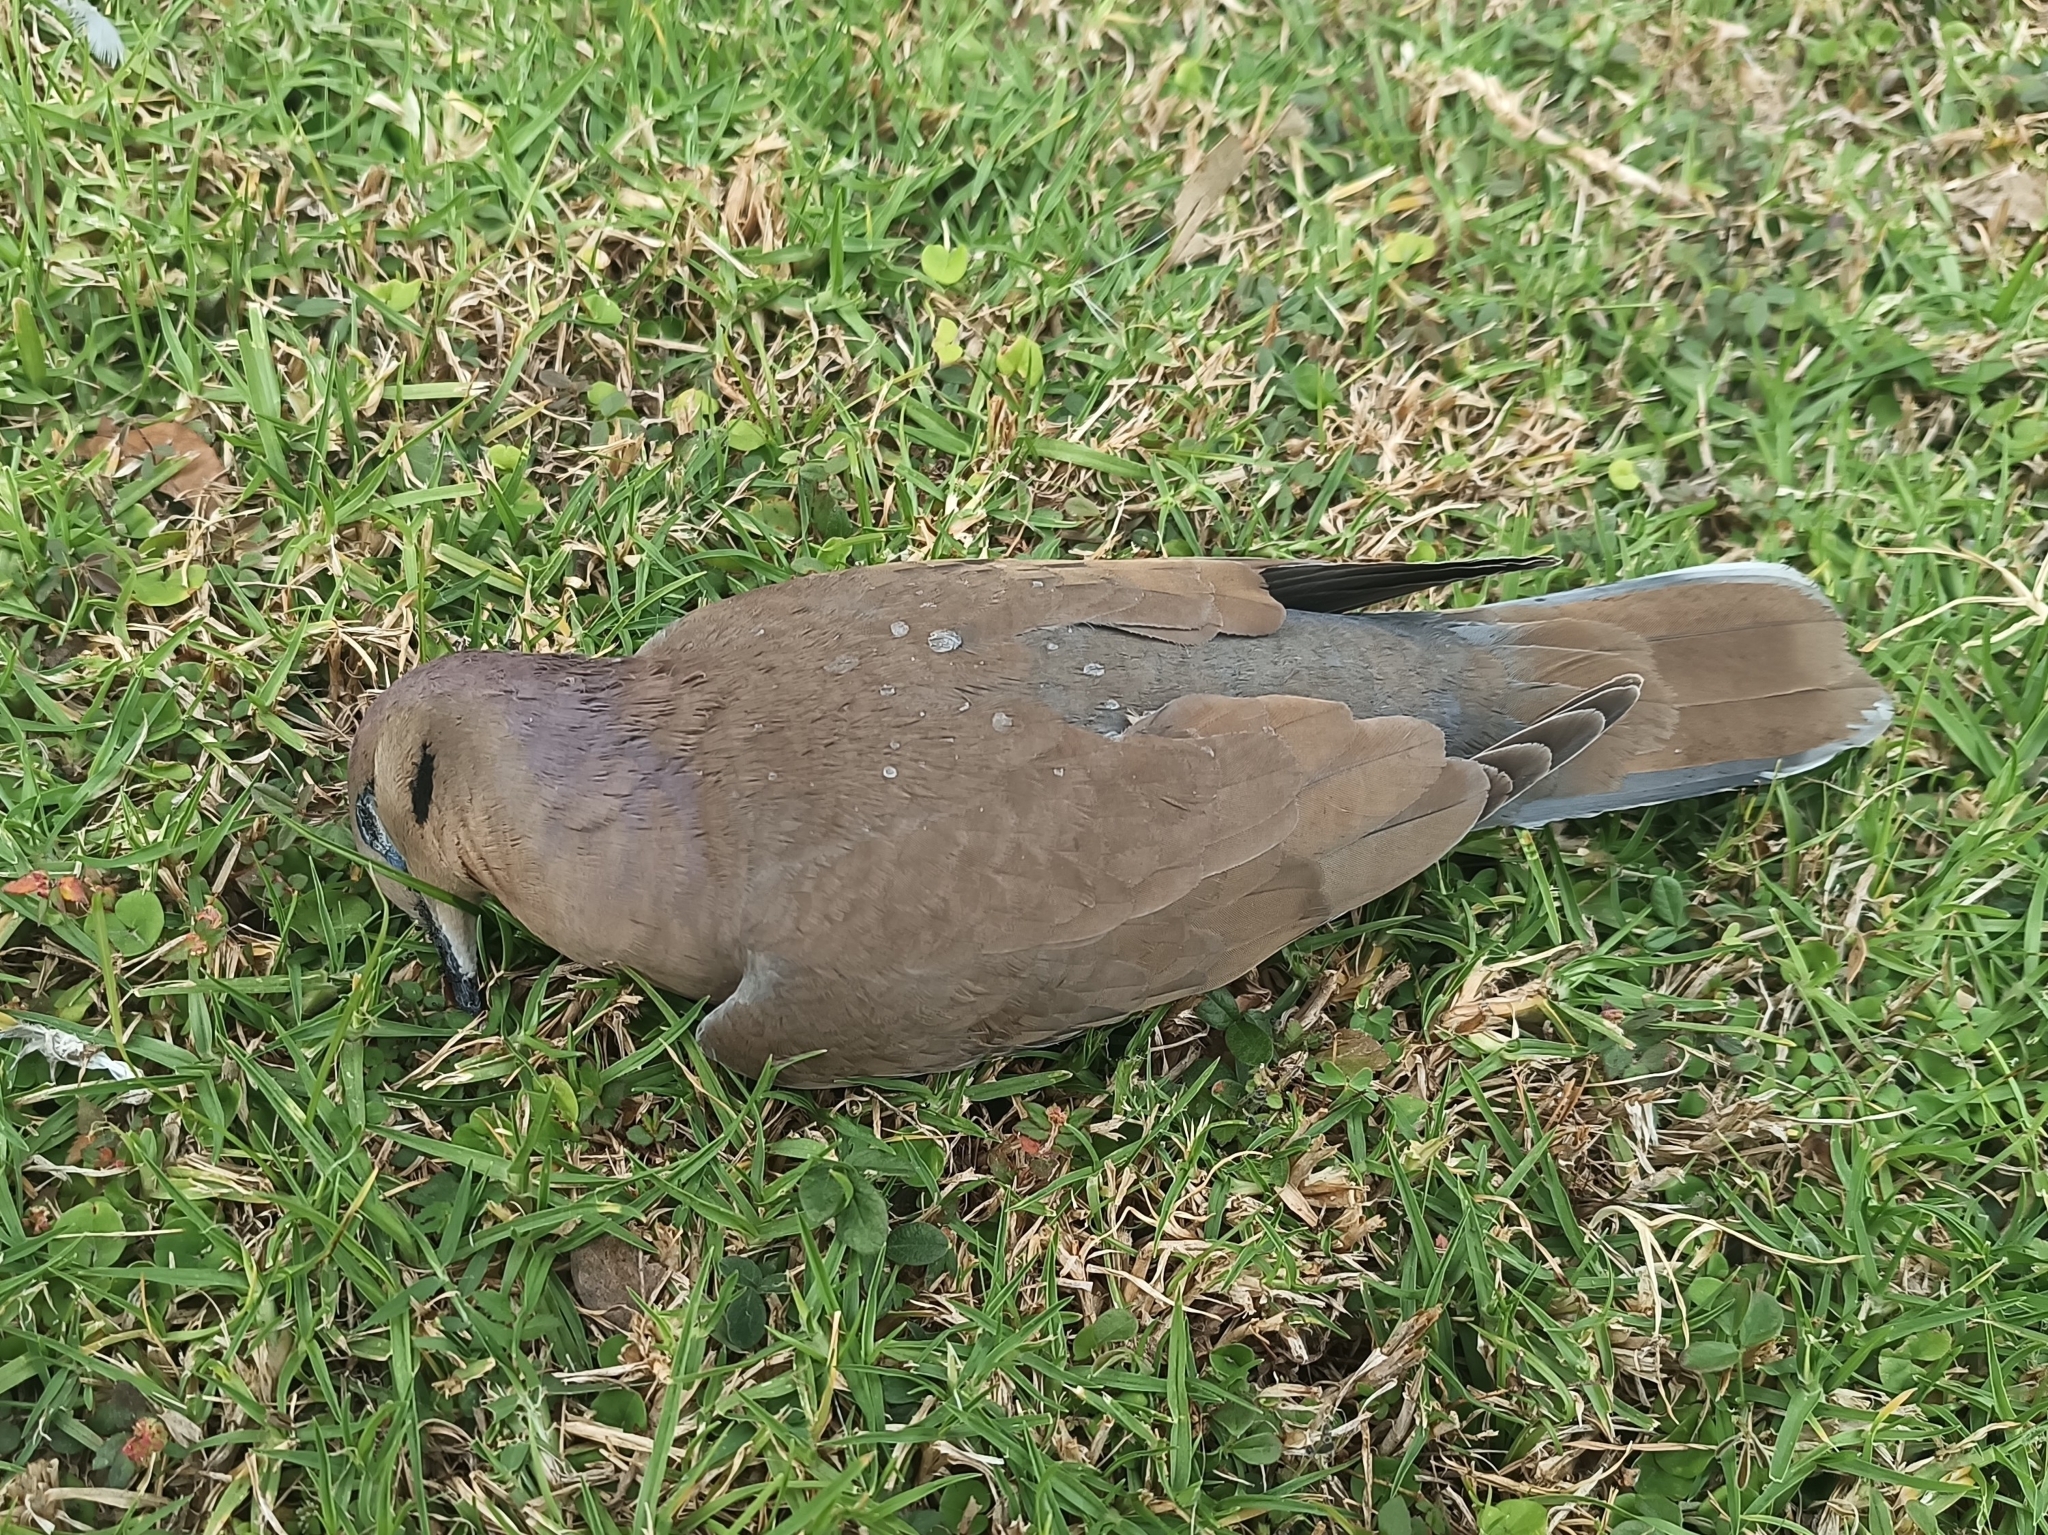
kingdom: Animalia
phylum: Chordata
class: Aves
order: Columbiformes
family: Columbidae
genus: Zenaida
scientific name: Zenaida asiatica
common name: White-winged dove
